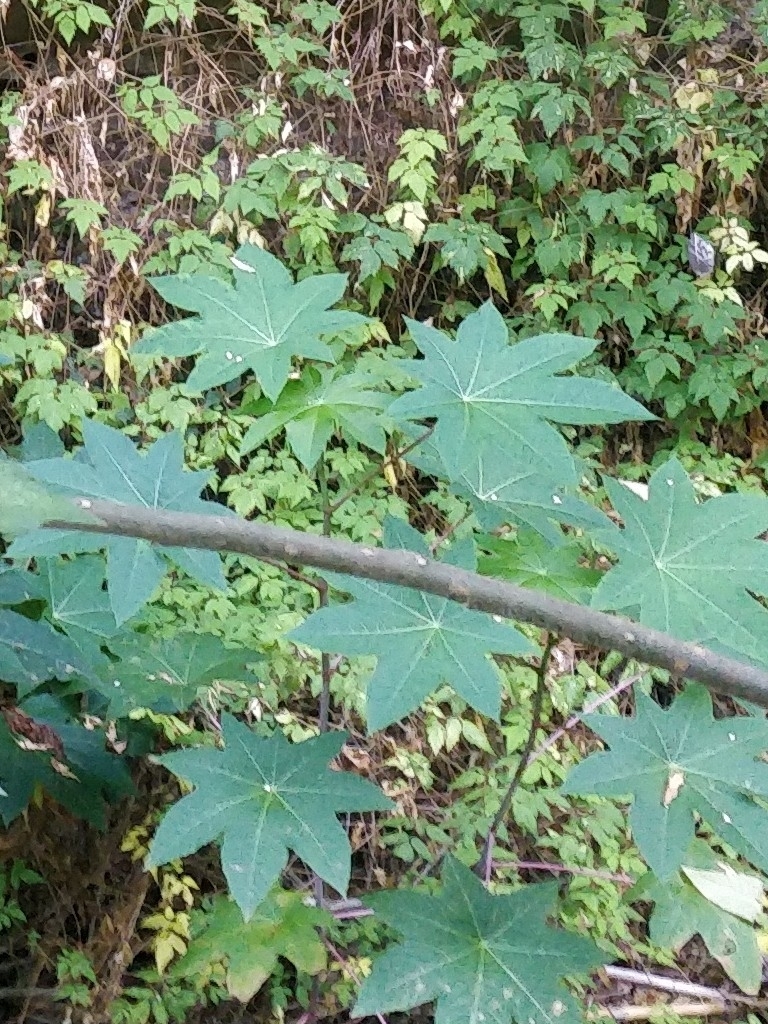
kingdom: Plantae
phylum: Tracheophyta
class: Magnoliopsida
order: Malpighiales
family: Euphorbiaceae
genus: Ricinus
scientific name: Ricinus communis
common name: Castor-oil-plant
